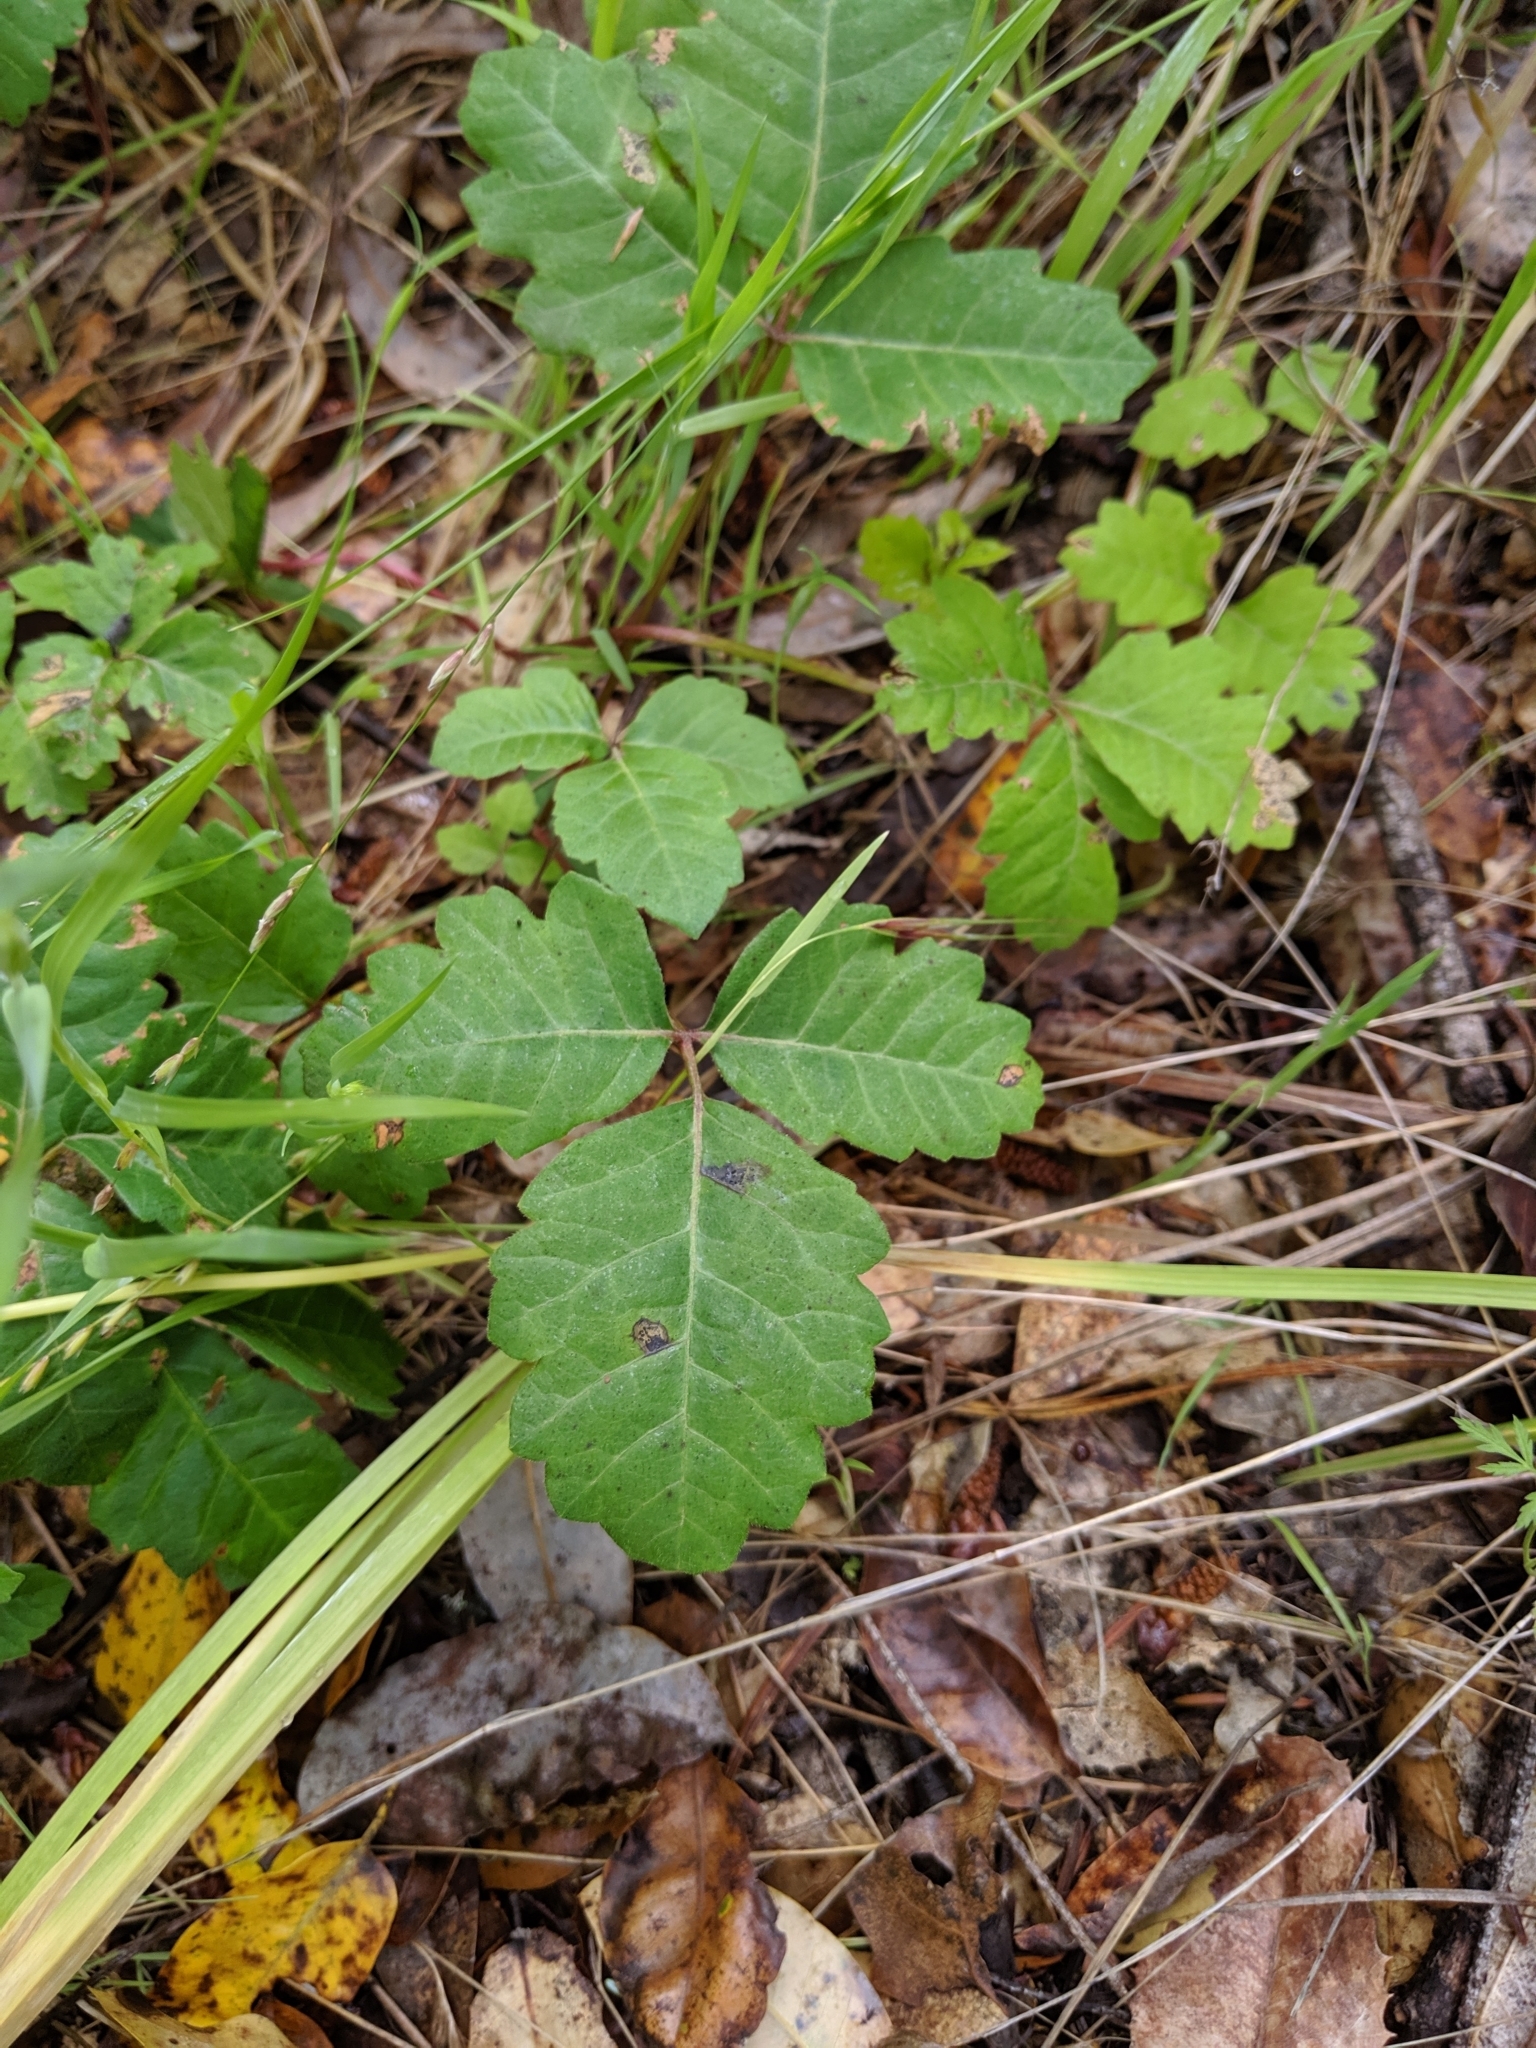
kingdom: Plantae
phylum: Tracheophyta
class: Magnoliopsida
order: Sapindales
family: Anacardiaceae
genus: Toxicodendron
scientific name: Toxicodendron diversilobum
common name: Pacific poison-oak
